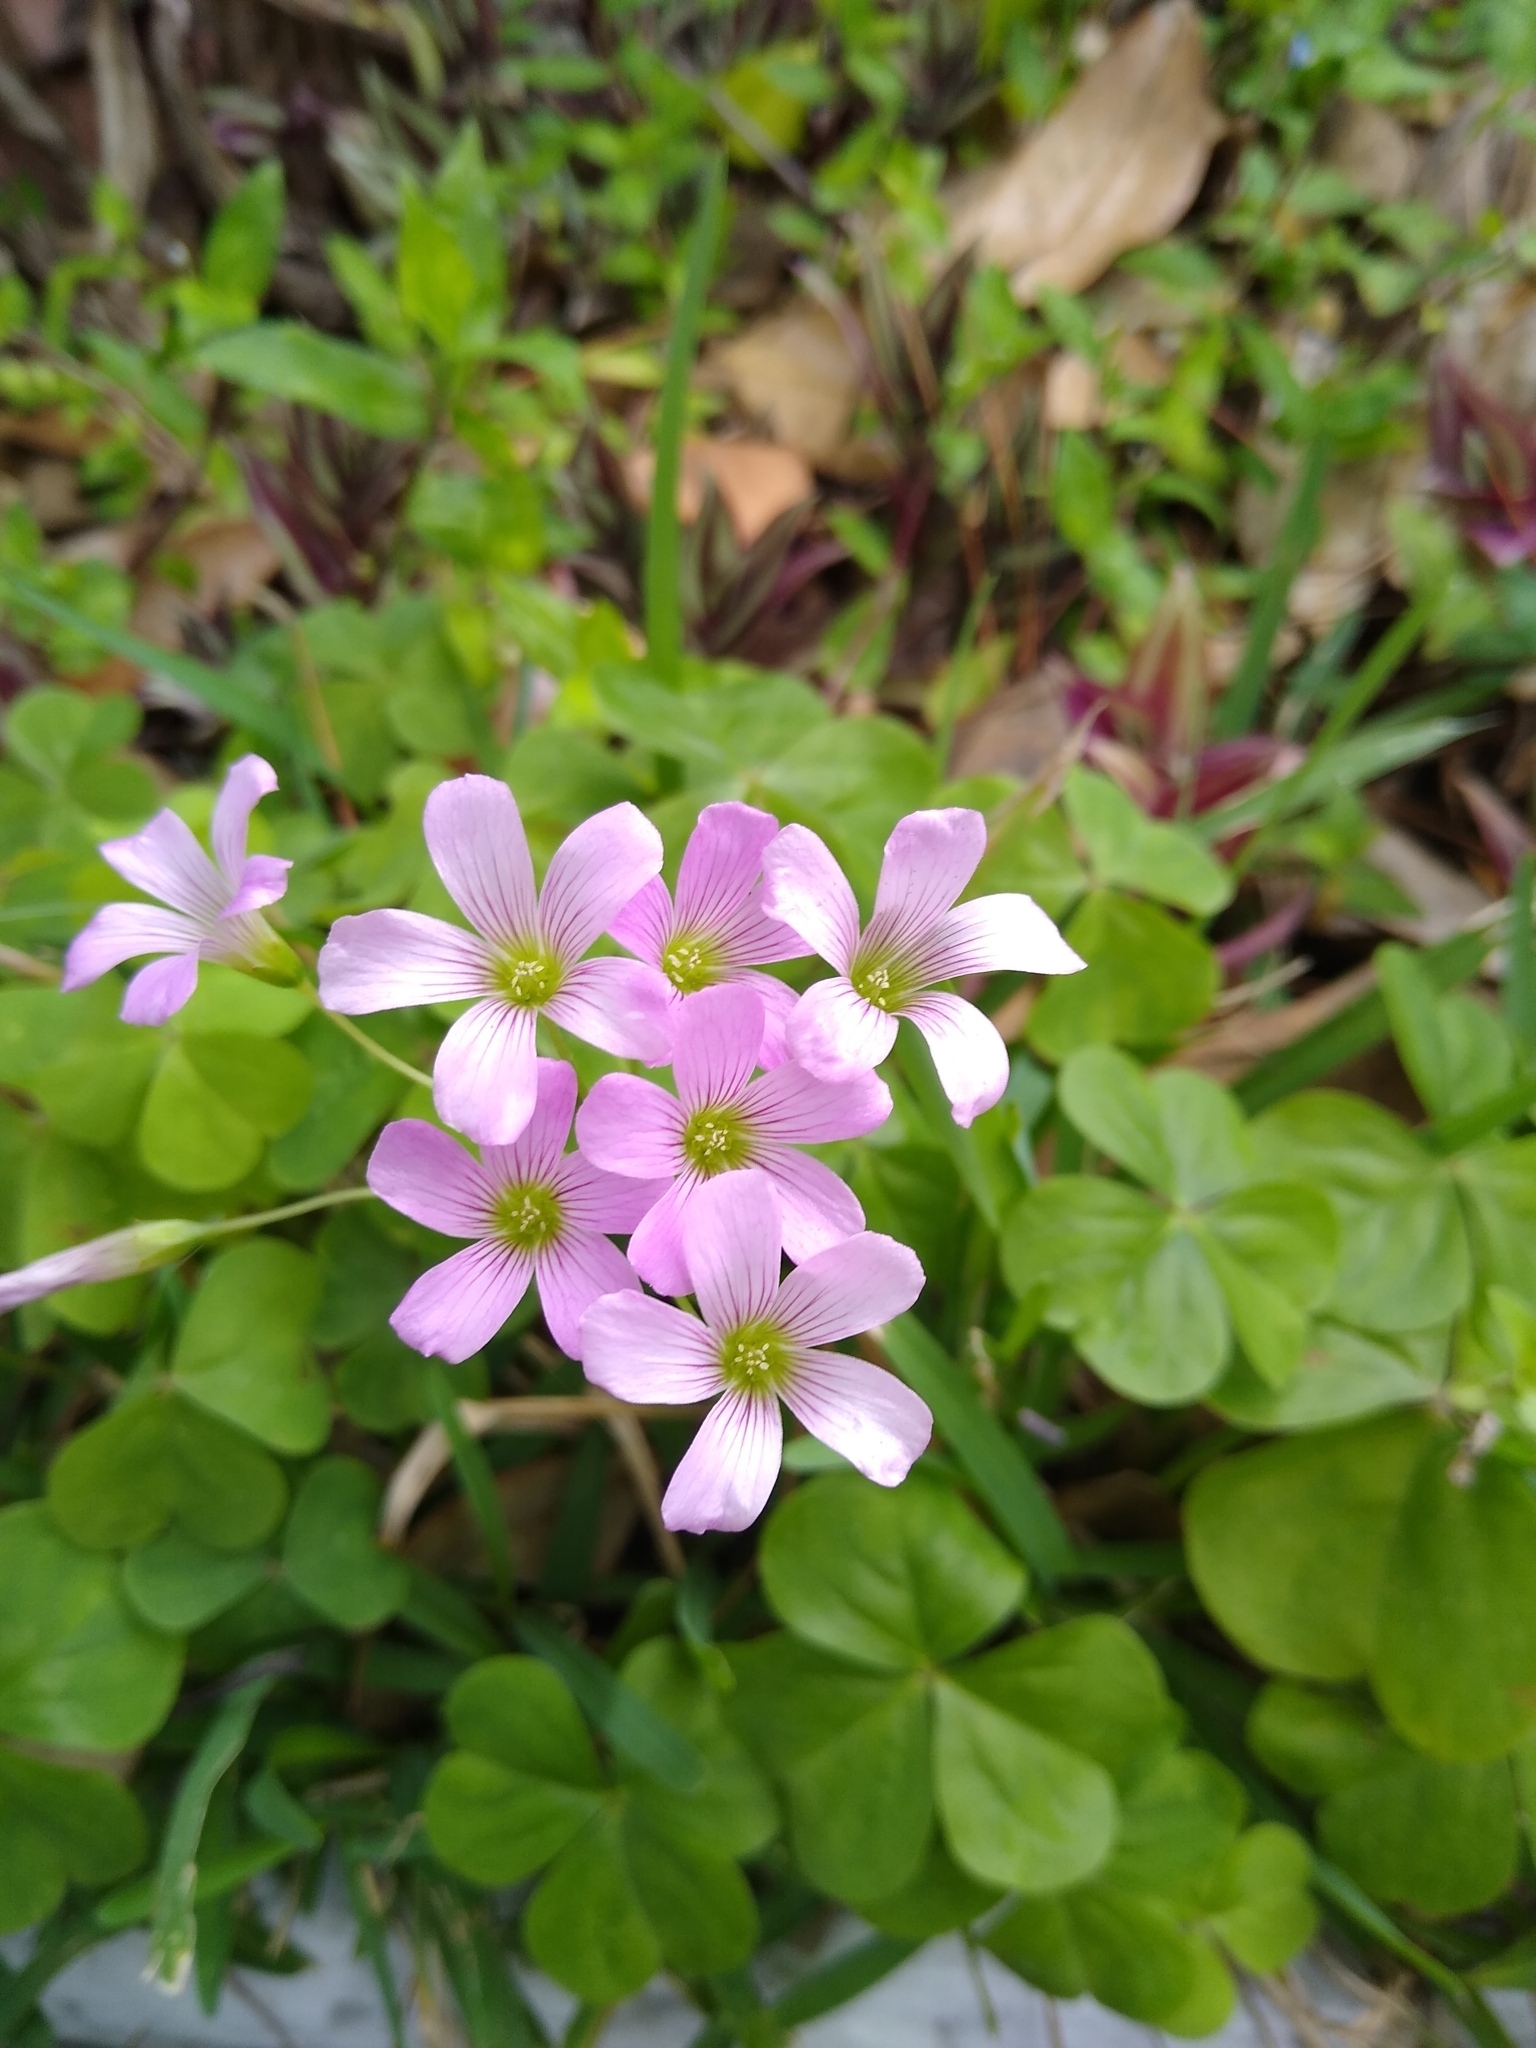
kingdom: Plantae
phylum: Tracheophyta
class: Magnoliopsida
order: Oxalidales
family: Oxalidaceae
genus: Oxalis
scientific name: Oxalis debilis
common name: Large-flowered pink-sorrel
